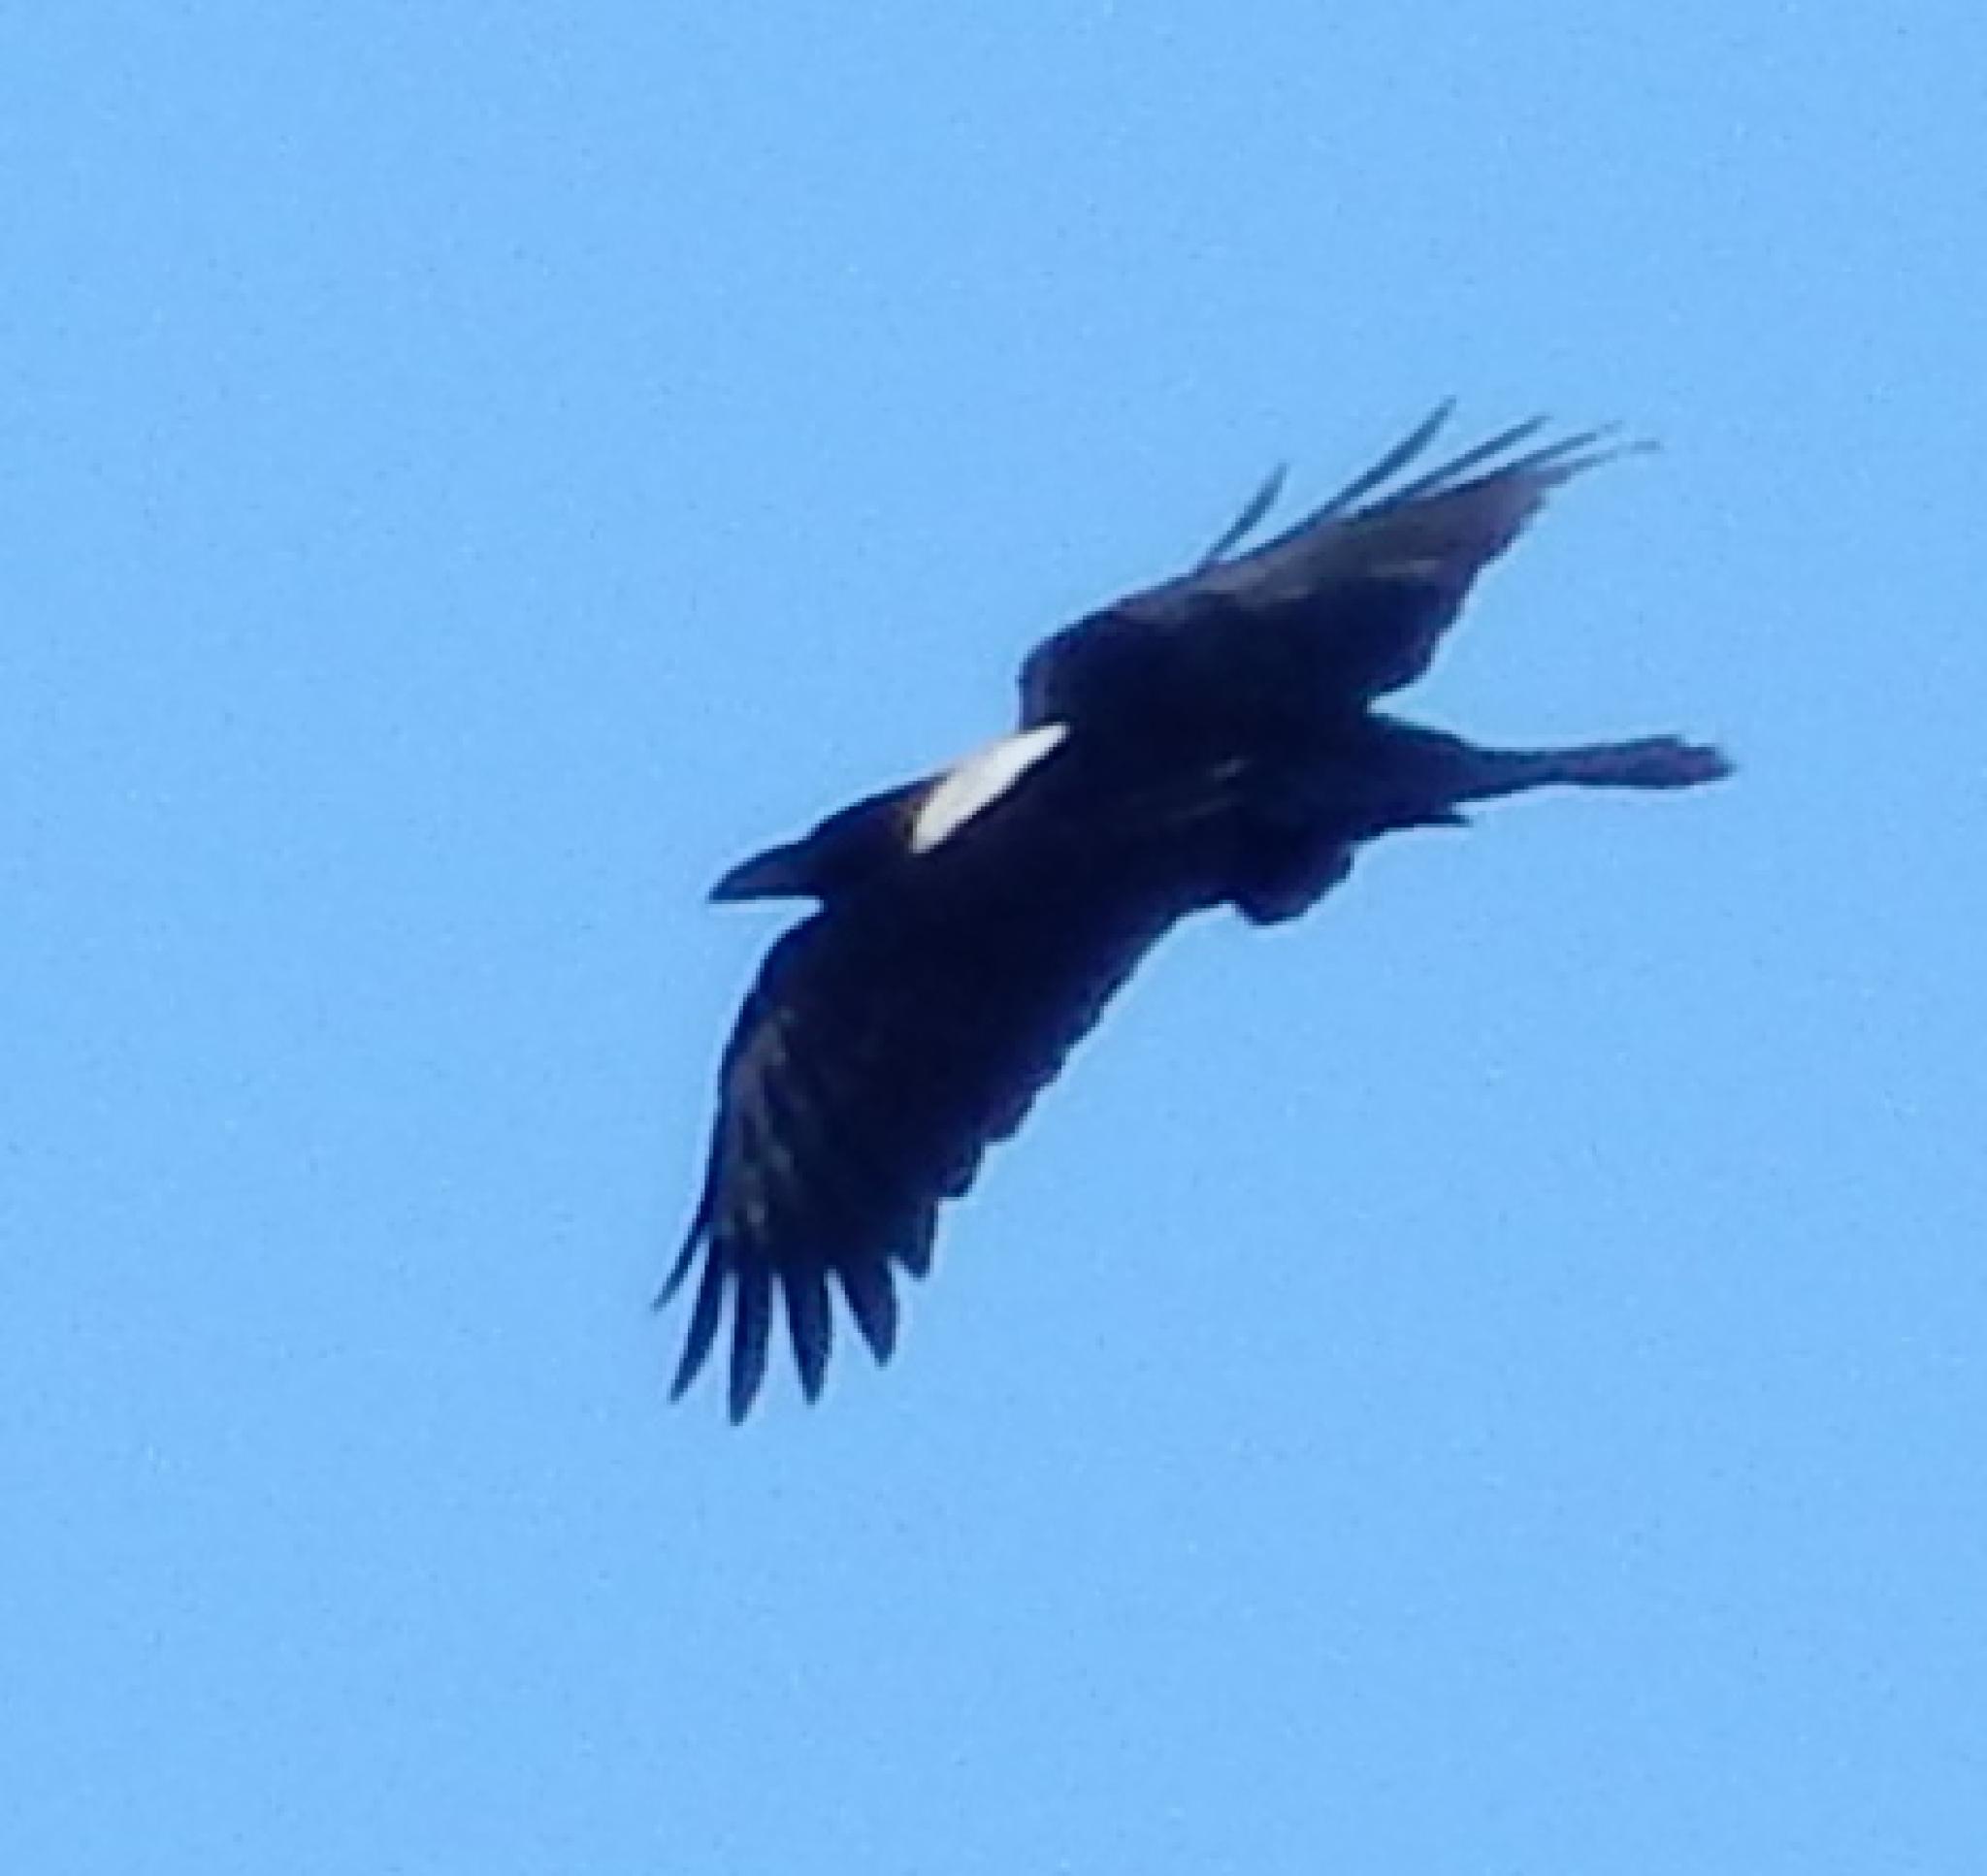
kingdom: Animalia
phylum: Chordata
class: Aves
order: Passeriformes
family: Corvidae
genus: Corvus
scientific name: Corvus albus
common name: Pied crow
